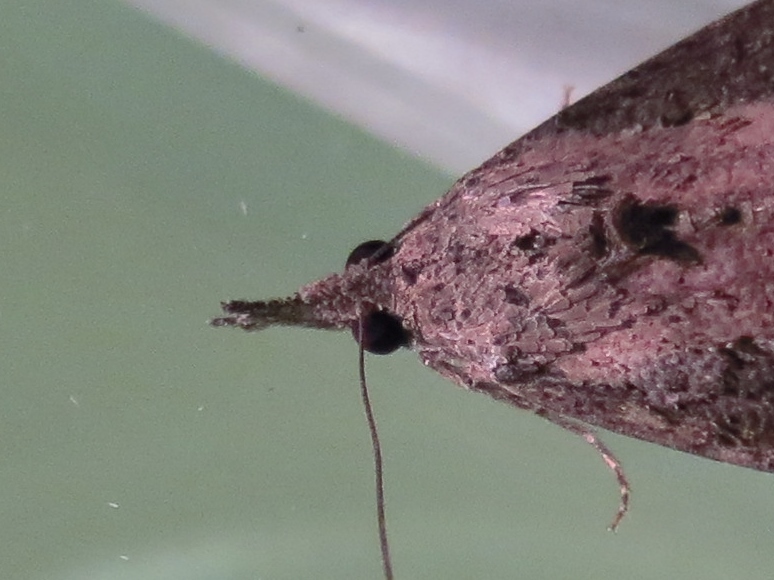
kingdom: Animalia
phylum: Arthropoda
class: Insecta
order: Lepidoptera
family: Erebidae
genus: Hypena
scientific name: Hypena scabra
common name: Green cloverworm
